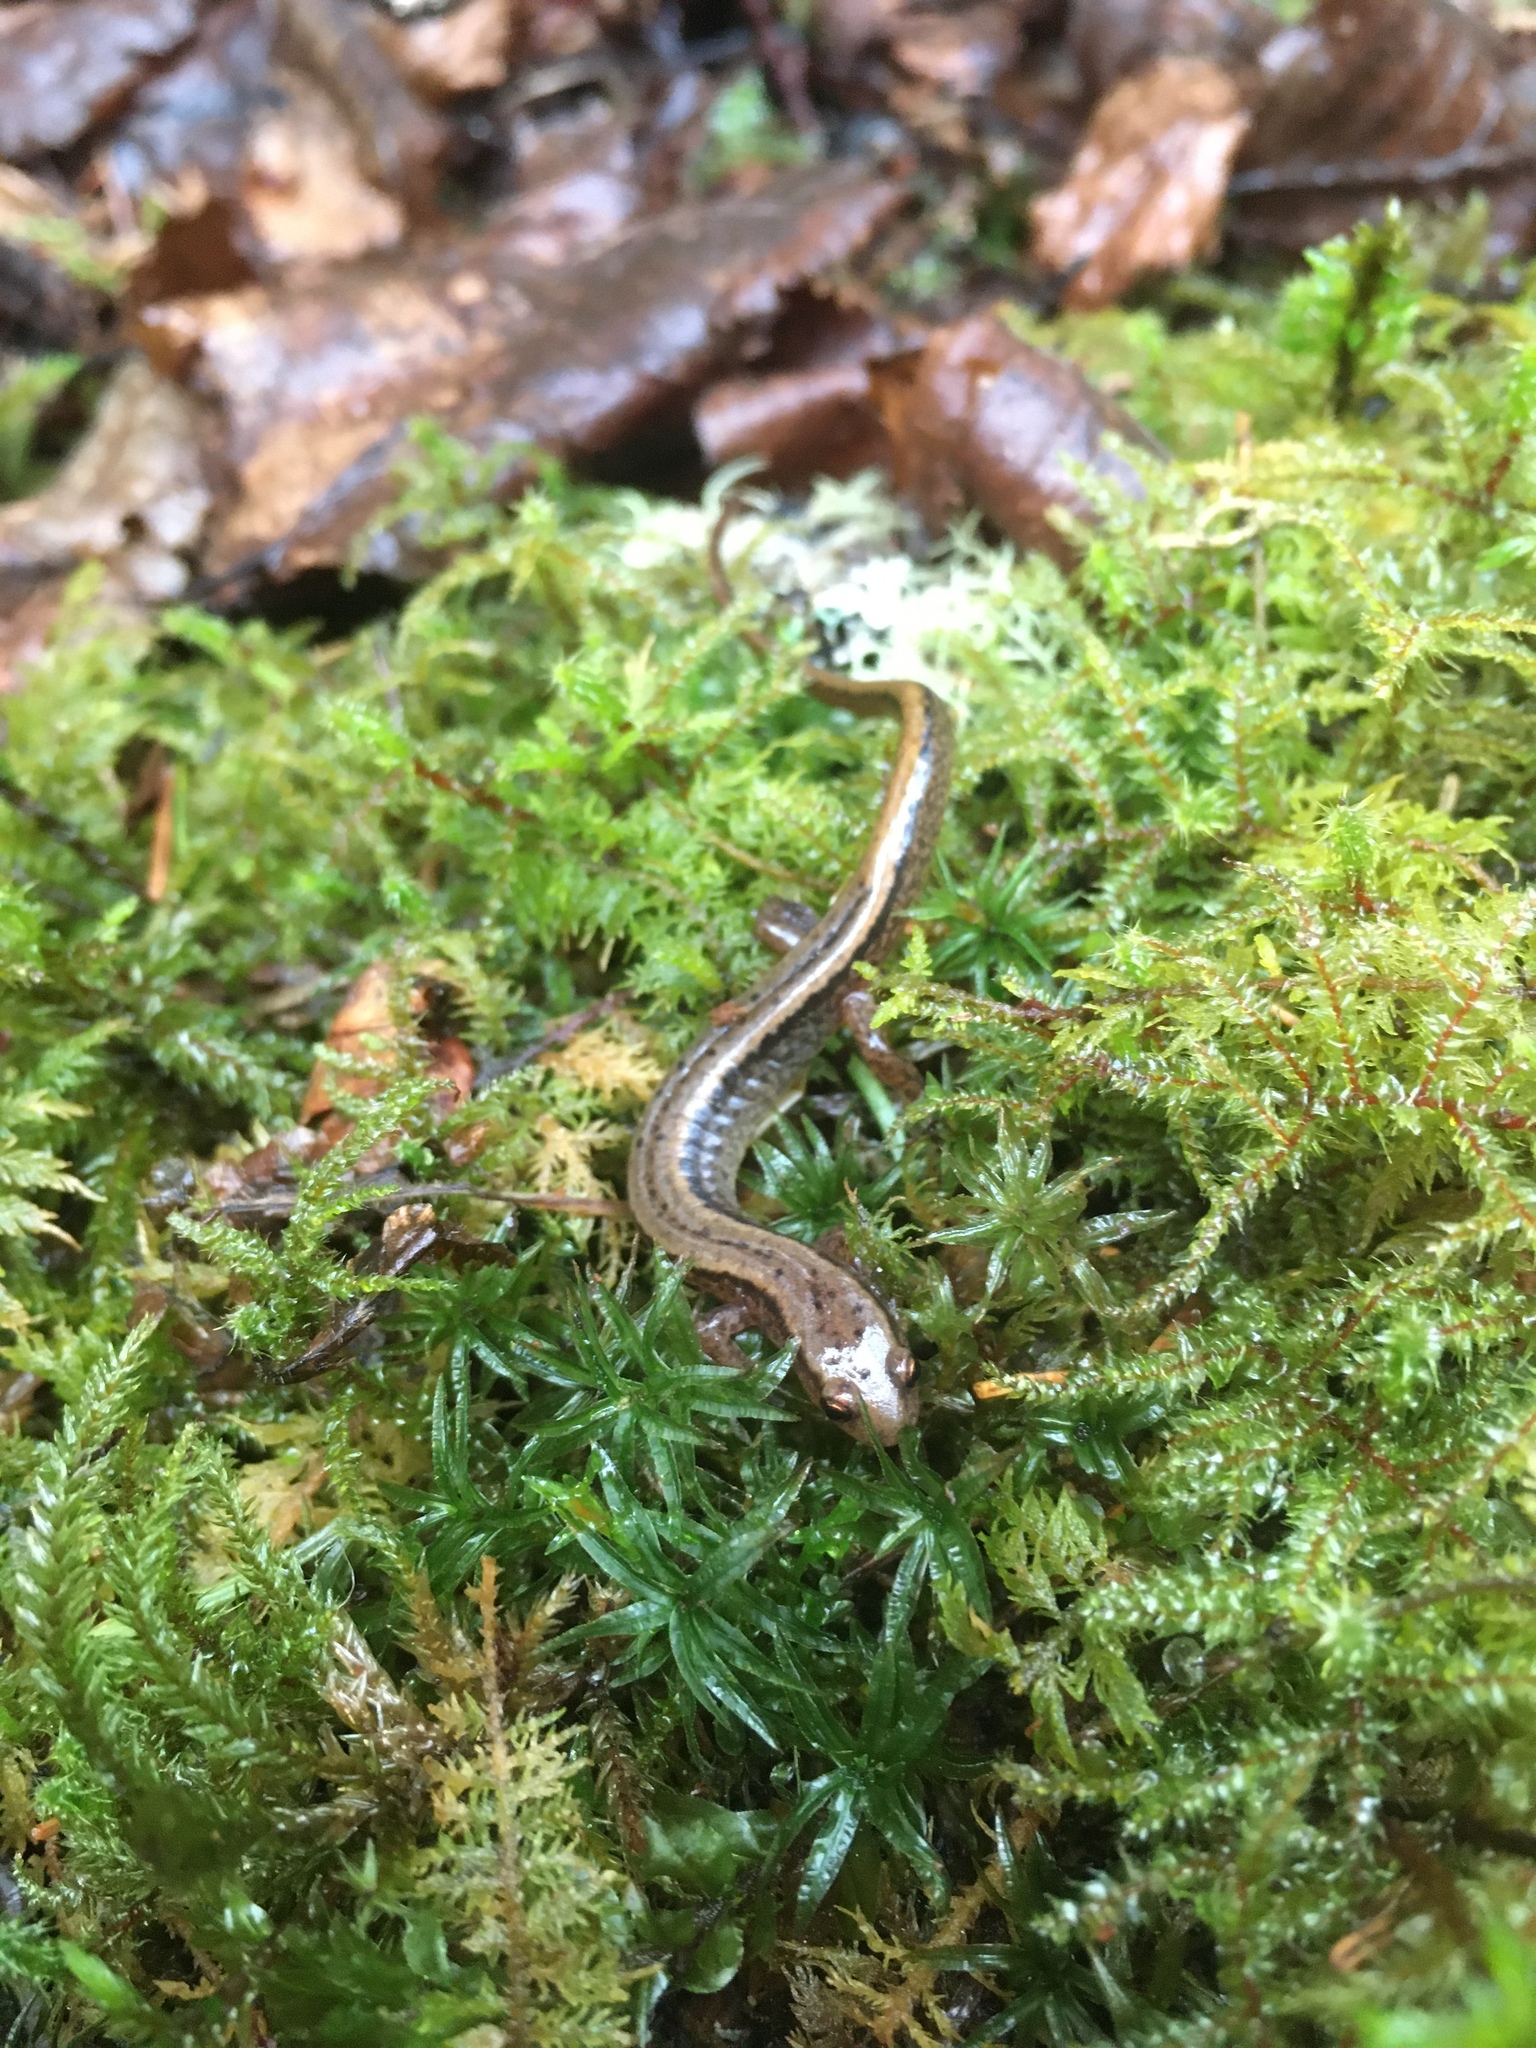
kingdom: Animalia
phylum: Chordata
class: Amphibia
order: Caudata
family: Plethodontidae
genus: Eurycea
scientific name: Eurycea bislineata
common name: Northern two-lined salamander
